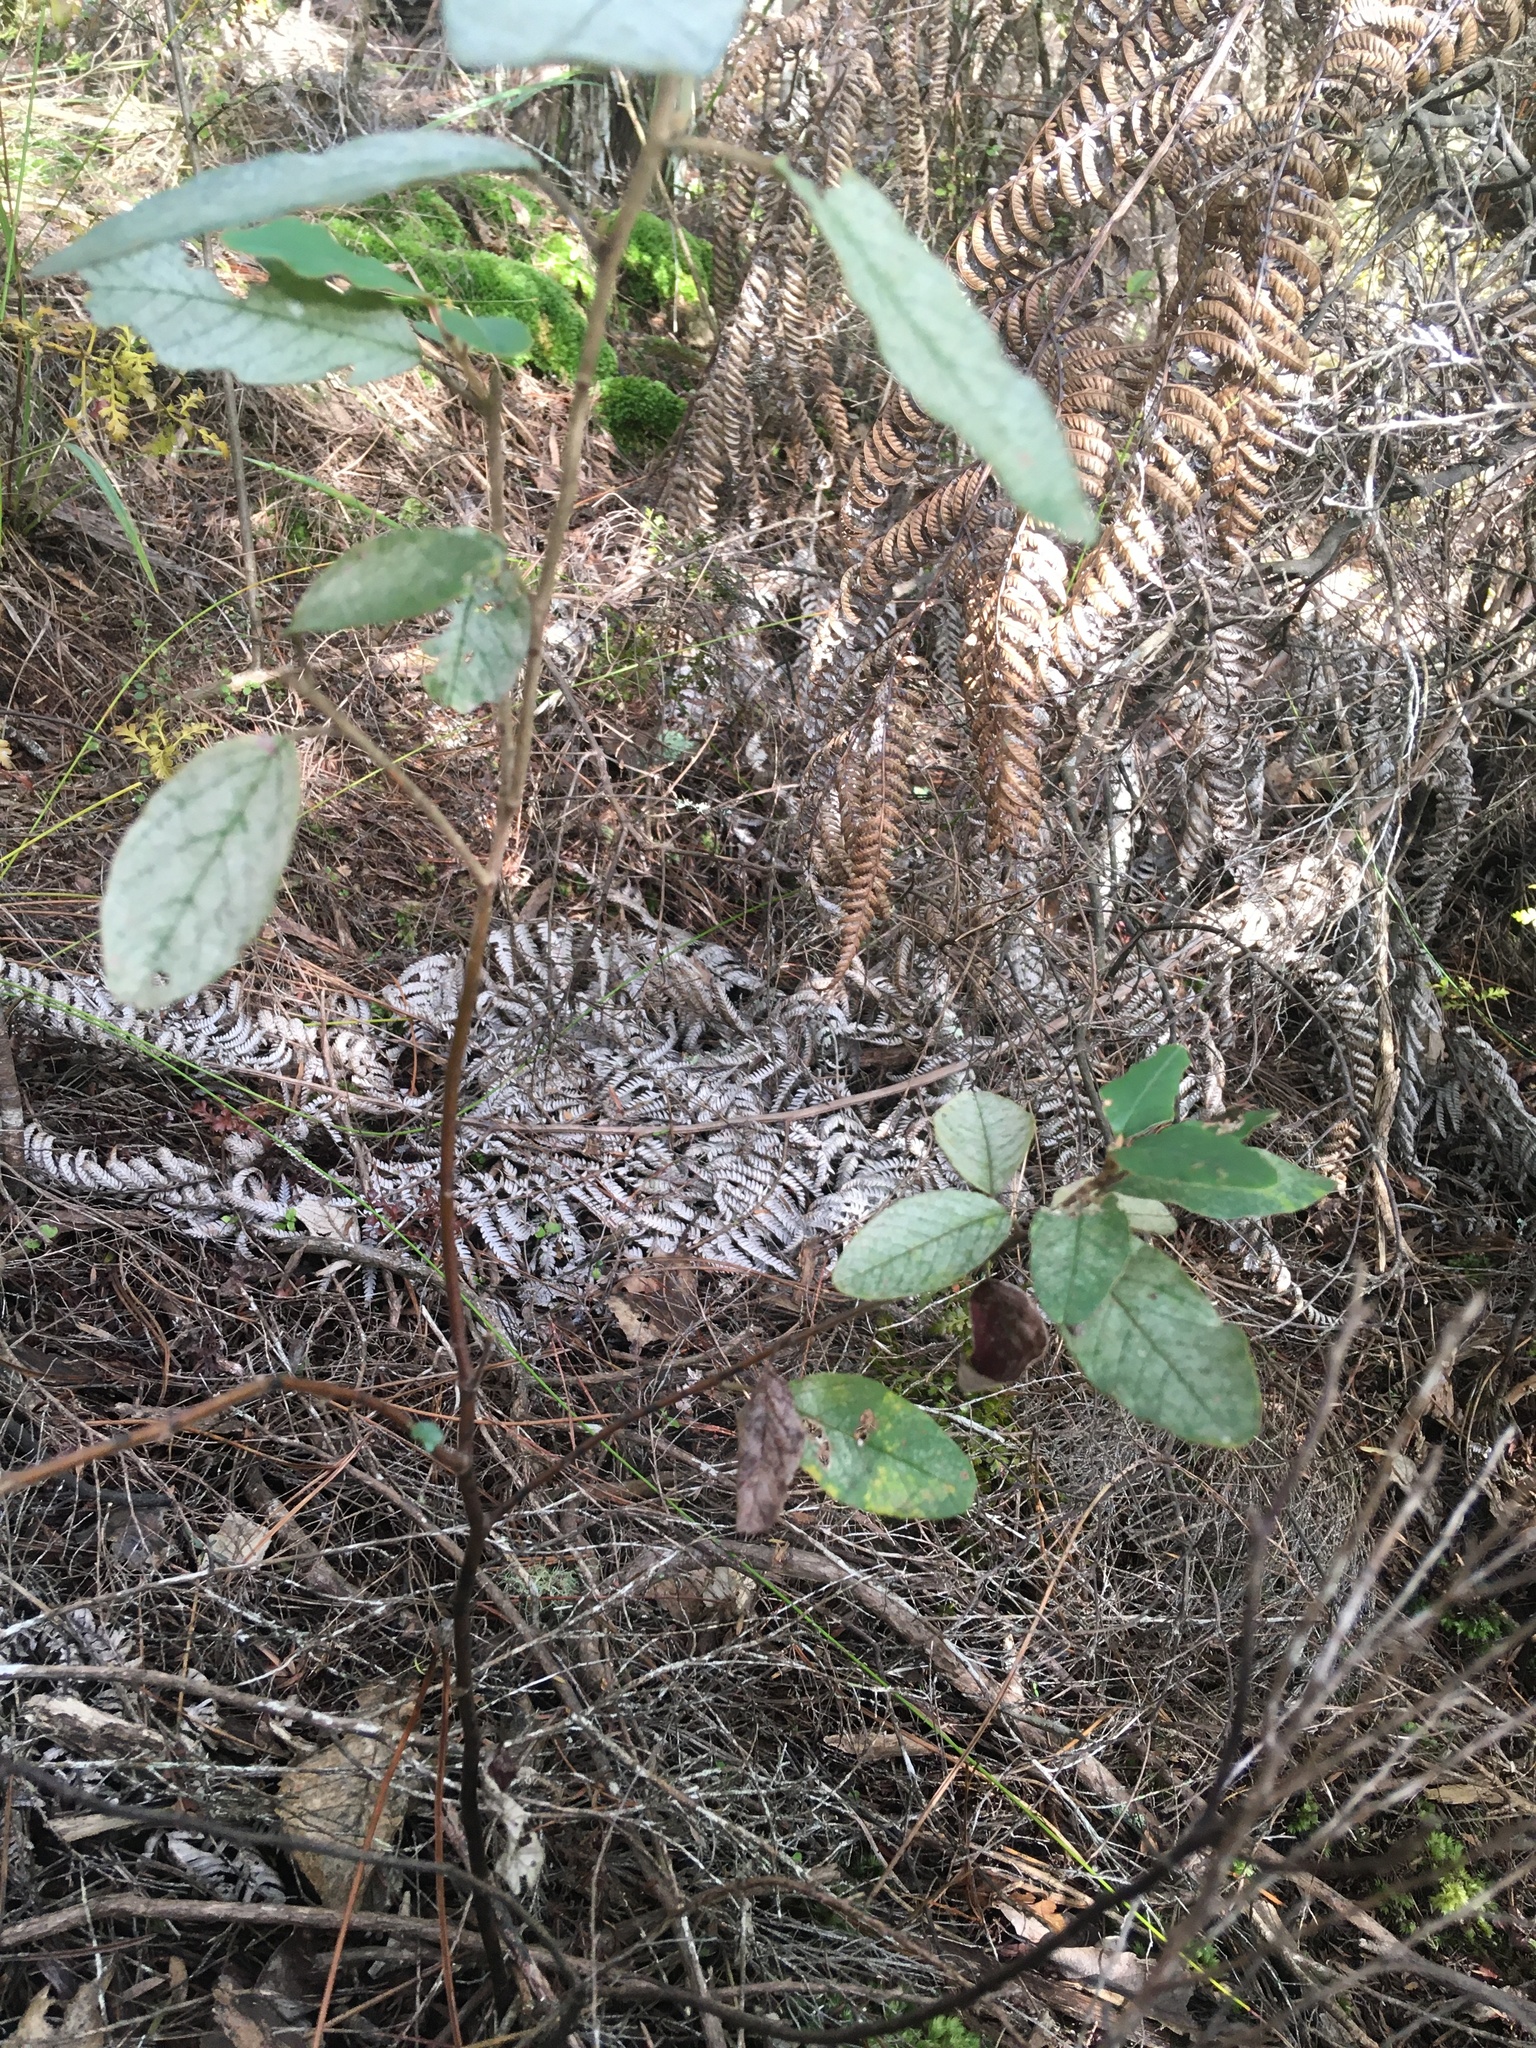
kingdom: Plantae
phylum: Tracheophyta
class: Magnoliopsida
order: Rosales
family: Rhamnaceae
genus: Pomaderris
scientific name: Pomaderris kumeraho
